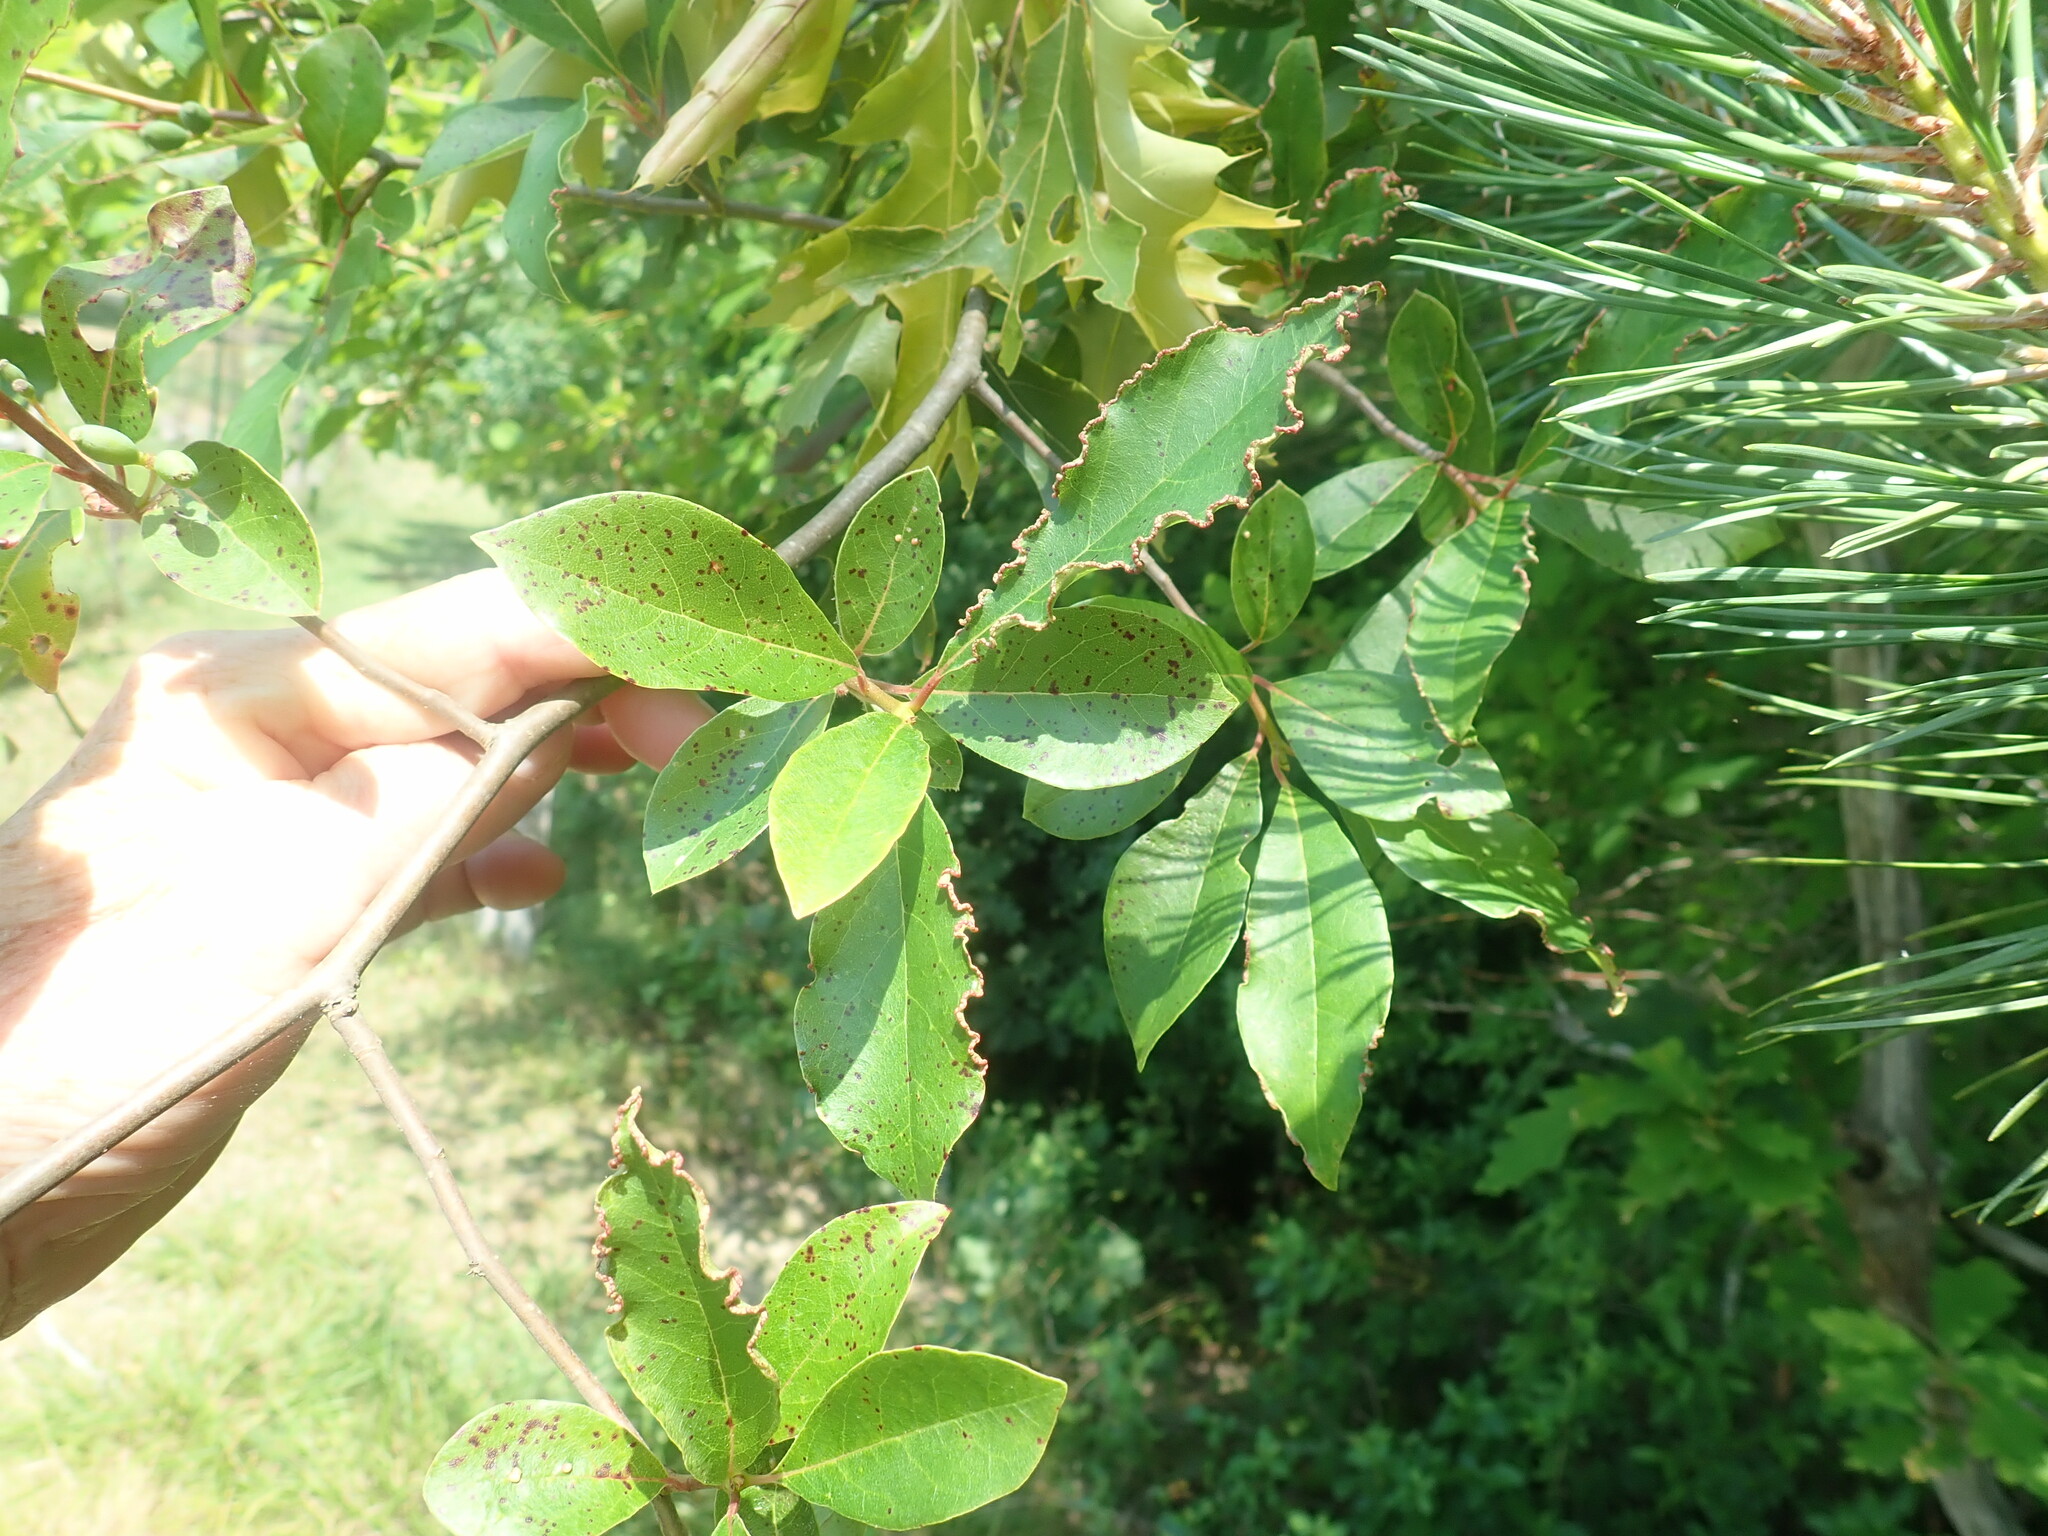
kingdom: Plantae
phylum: Tracheophyta
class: Magnoliopsida
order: Cornales
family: Nyssaceae
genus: Nyssa
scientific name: Nyssa sylvatica
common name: Black tupelo
